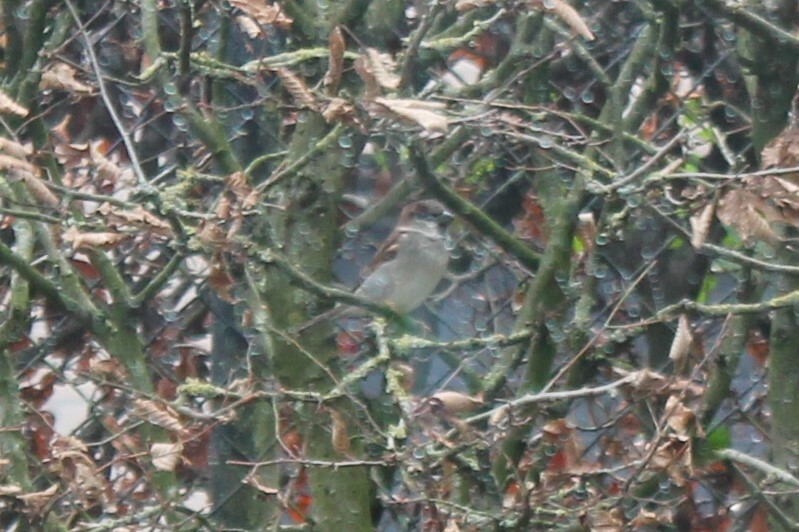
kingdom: Animalia
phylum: Chordata
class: Aves
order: Passeriformes
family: Passeridae
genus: Passer
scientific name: Passer domesticus
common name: House sparrow
